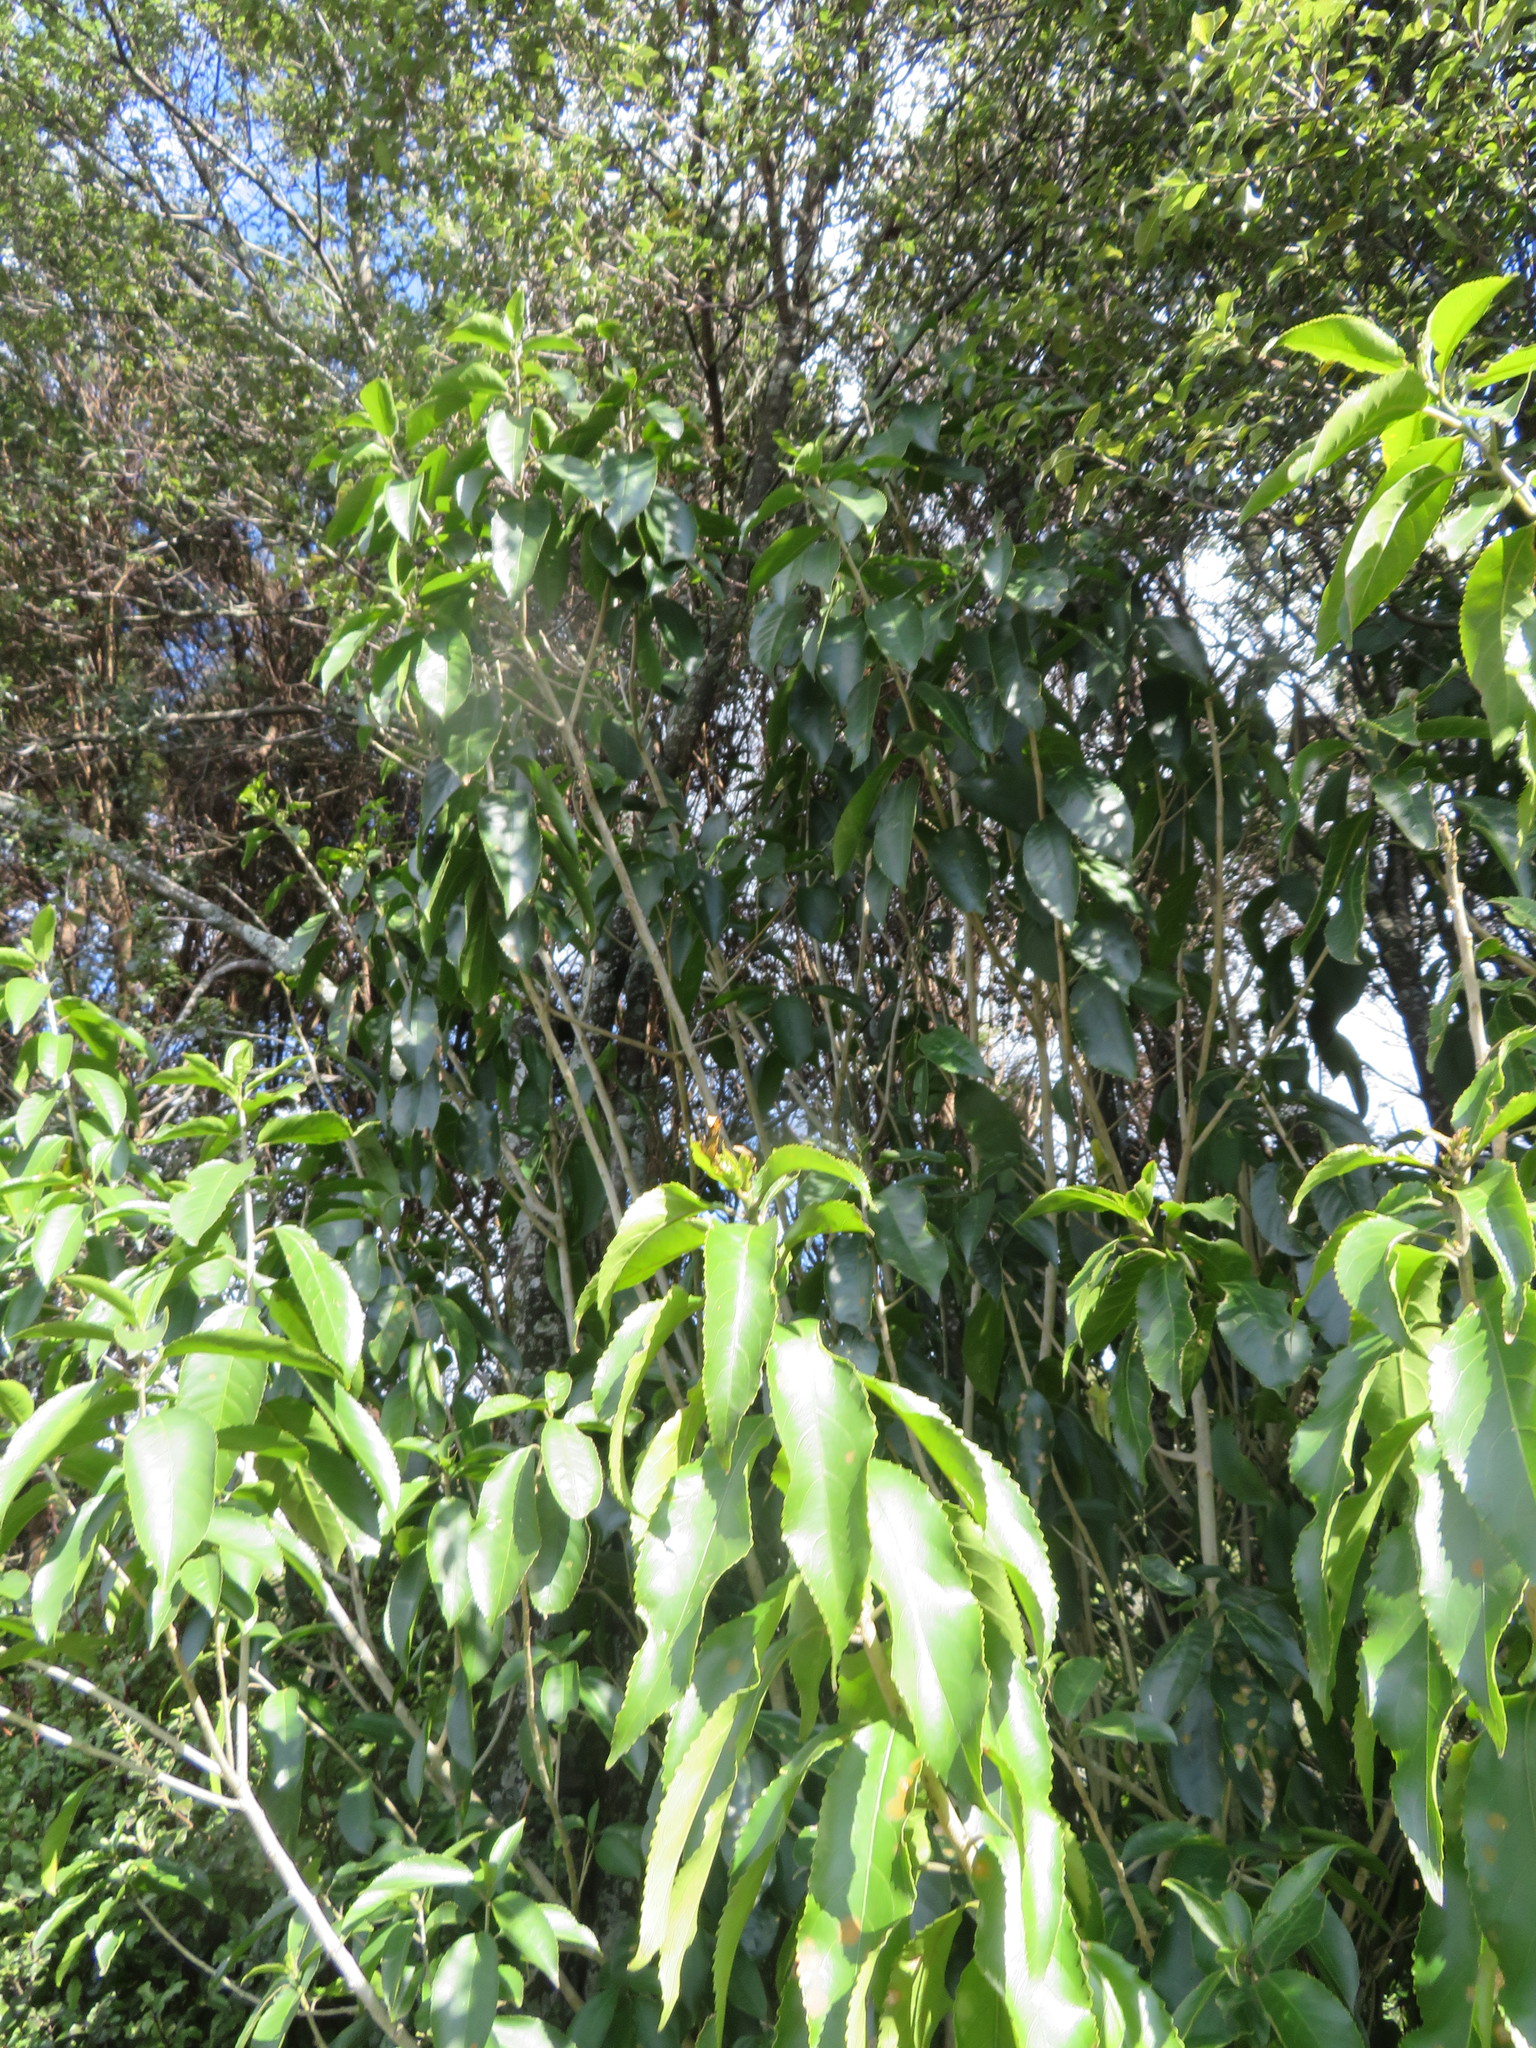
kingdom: Plantae
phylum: Tracheophyta
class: Magnoliopsida
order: Malpighiales
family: Violaceae
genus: Melicytus
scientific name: Melicytus ramiflorus
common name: Mahoe
